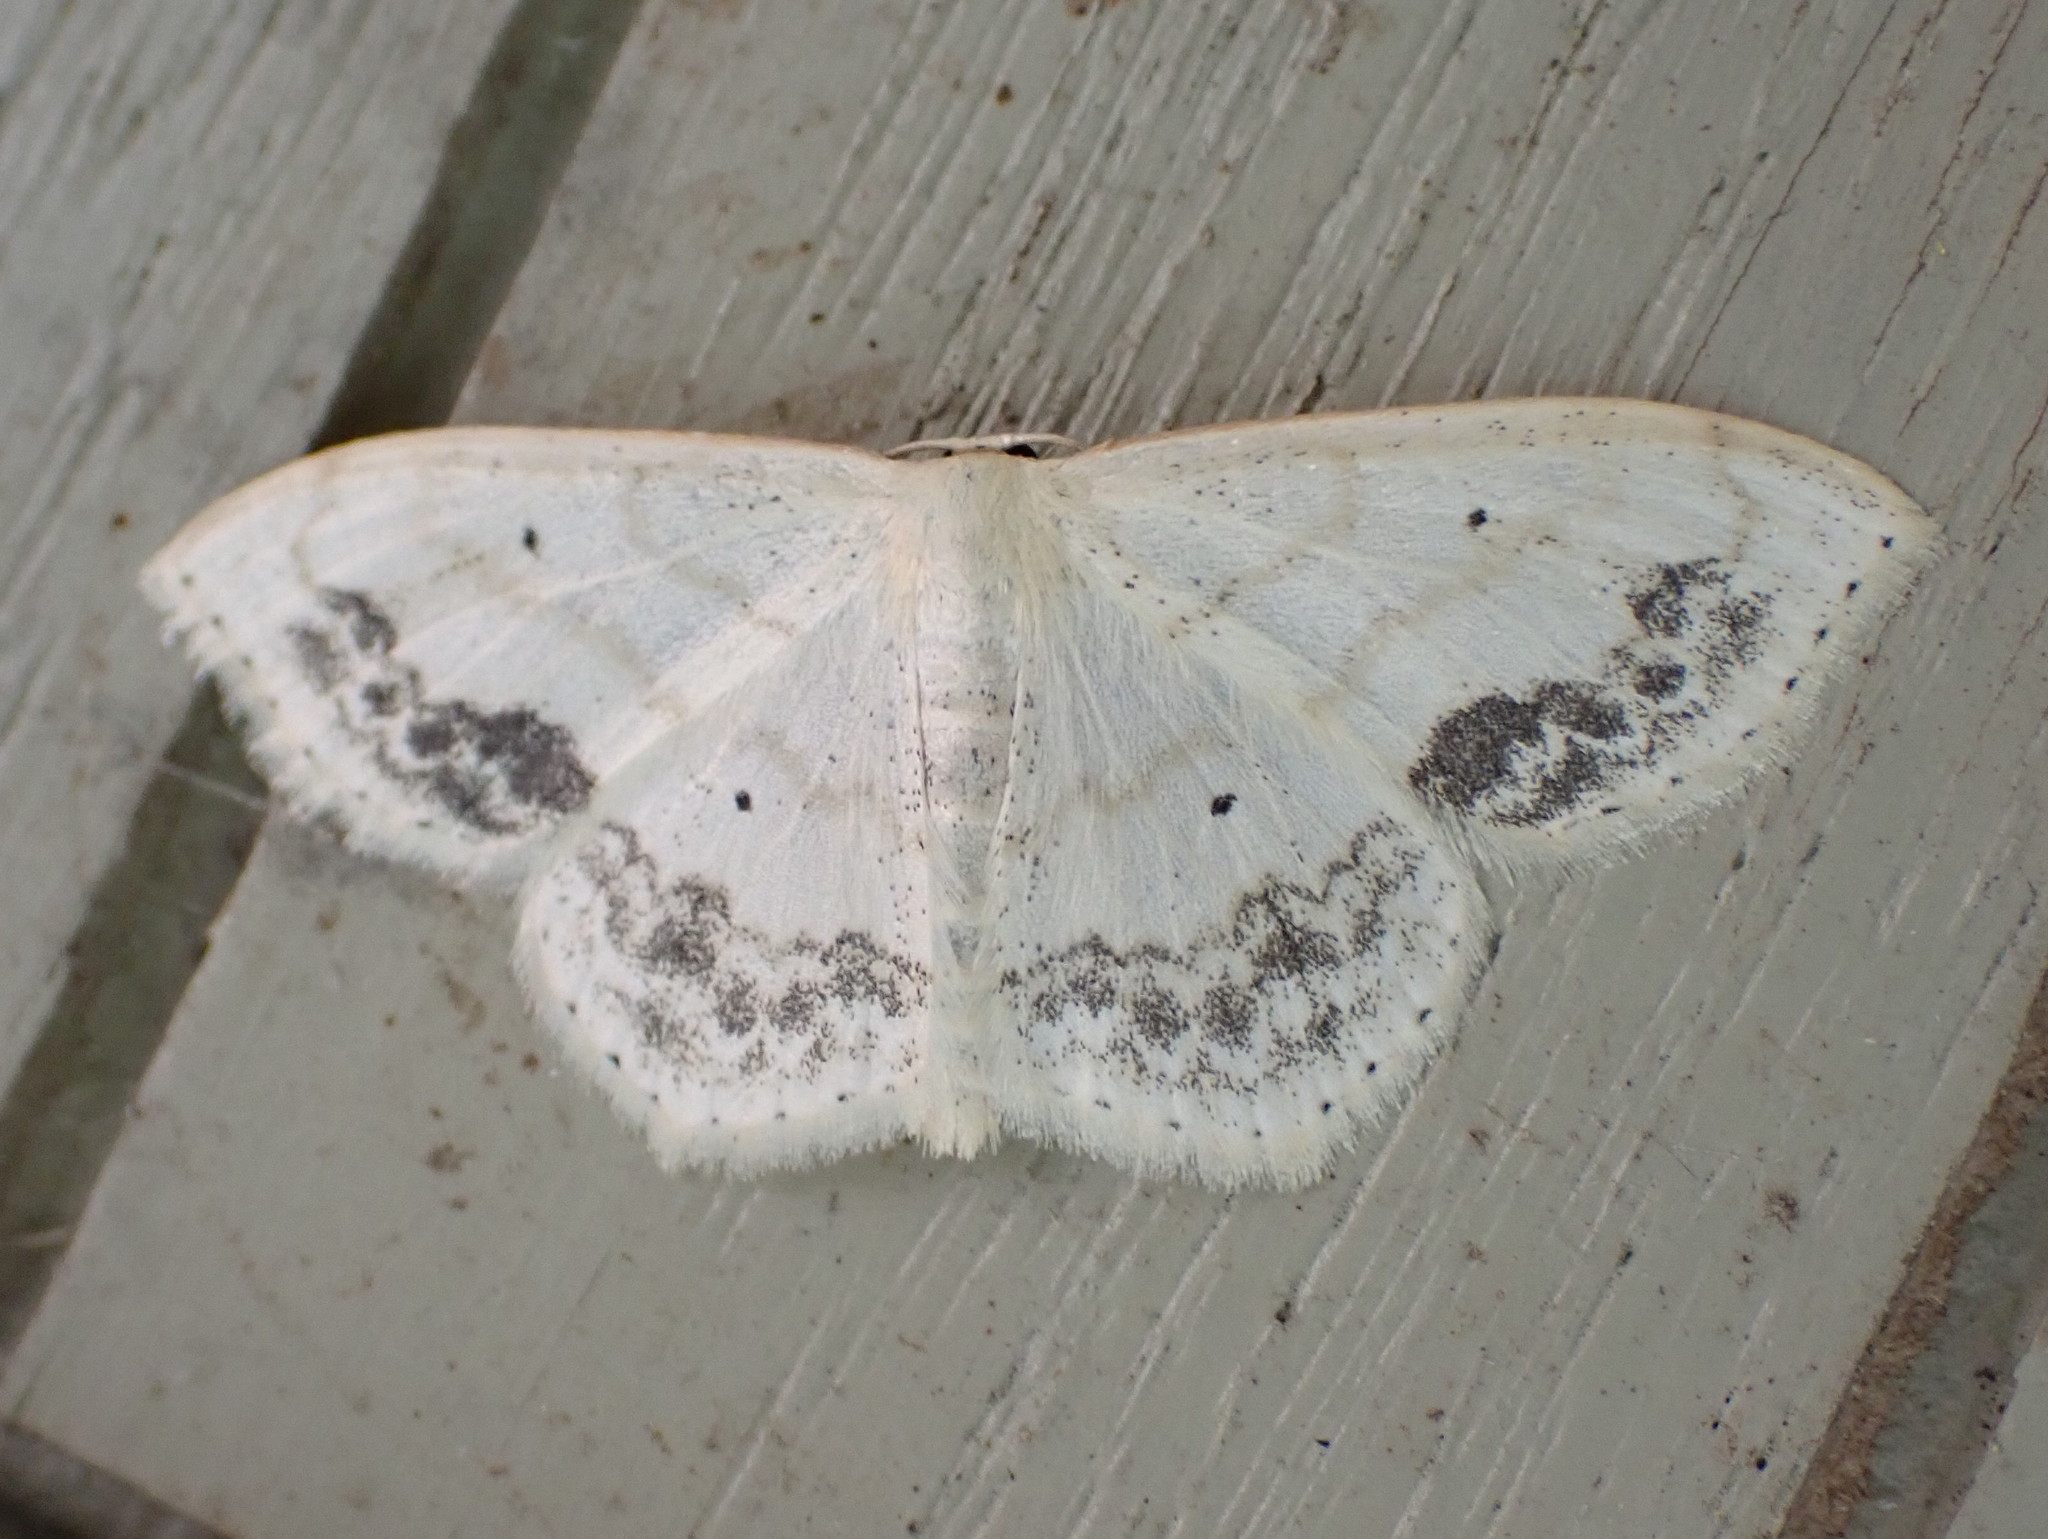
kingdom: Animalia
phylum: Arthropoda
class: Insecta
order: Lepidoptera
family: Geometridae
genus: Scopula
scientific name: Scopula limboundata
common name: Large lace border
